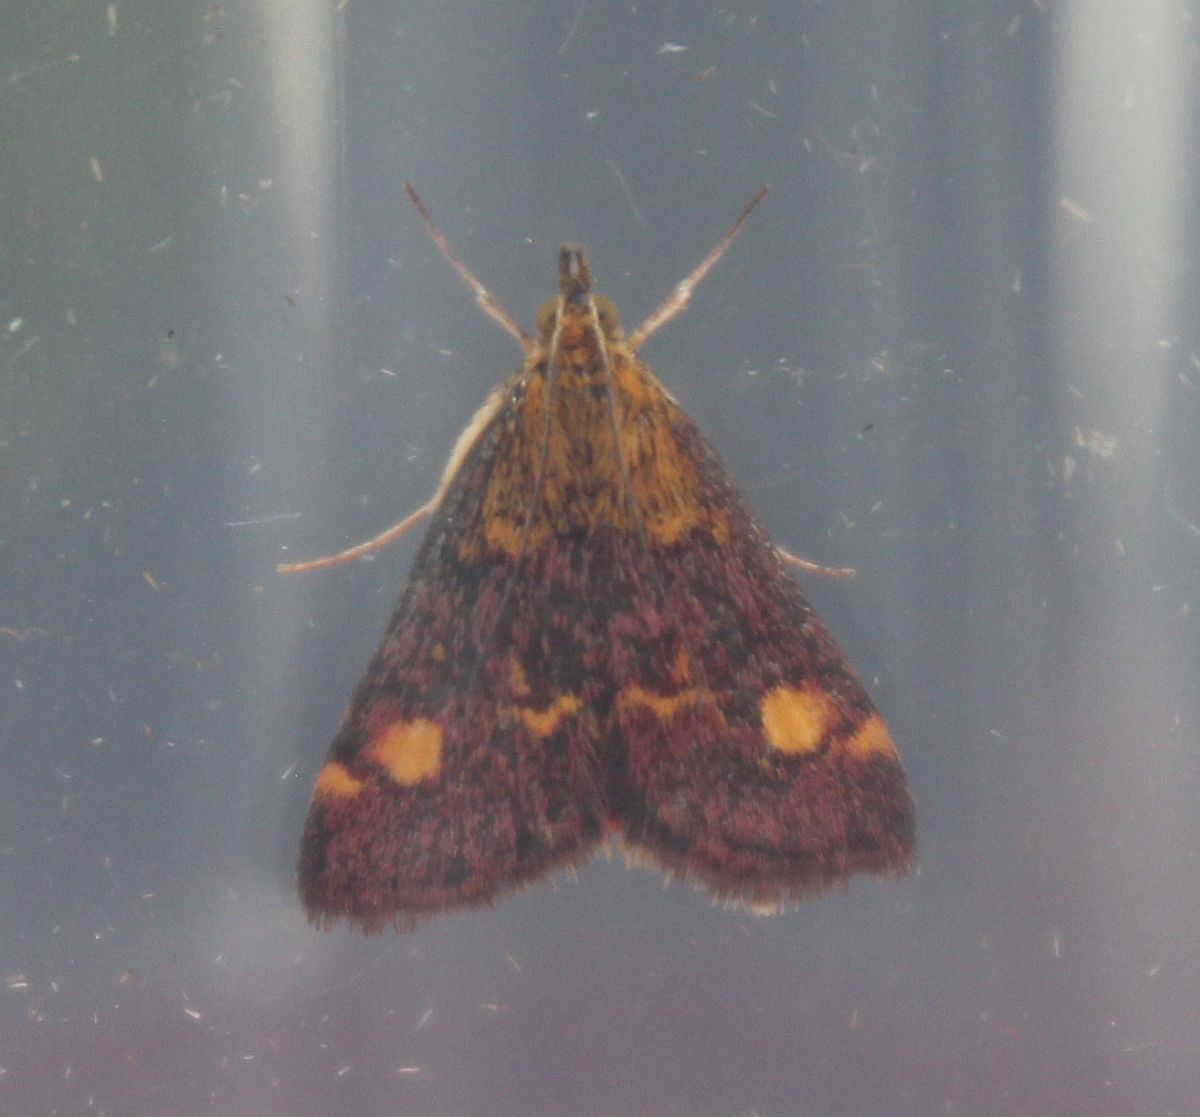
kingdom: Animalia
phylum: Arthropoda
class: Insecta
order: Lepidoptera
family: Crambidae
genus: Pyrausta
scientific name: Pyrausta aurata
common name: Small purple & gold
